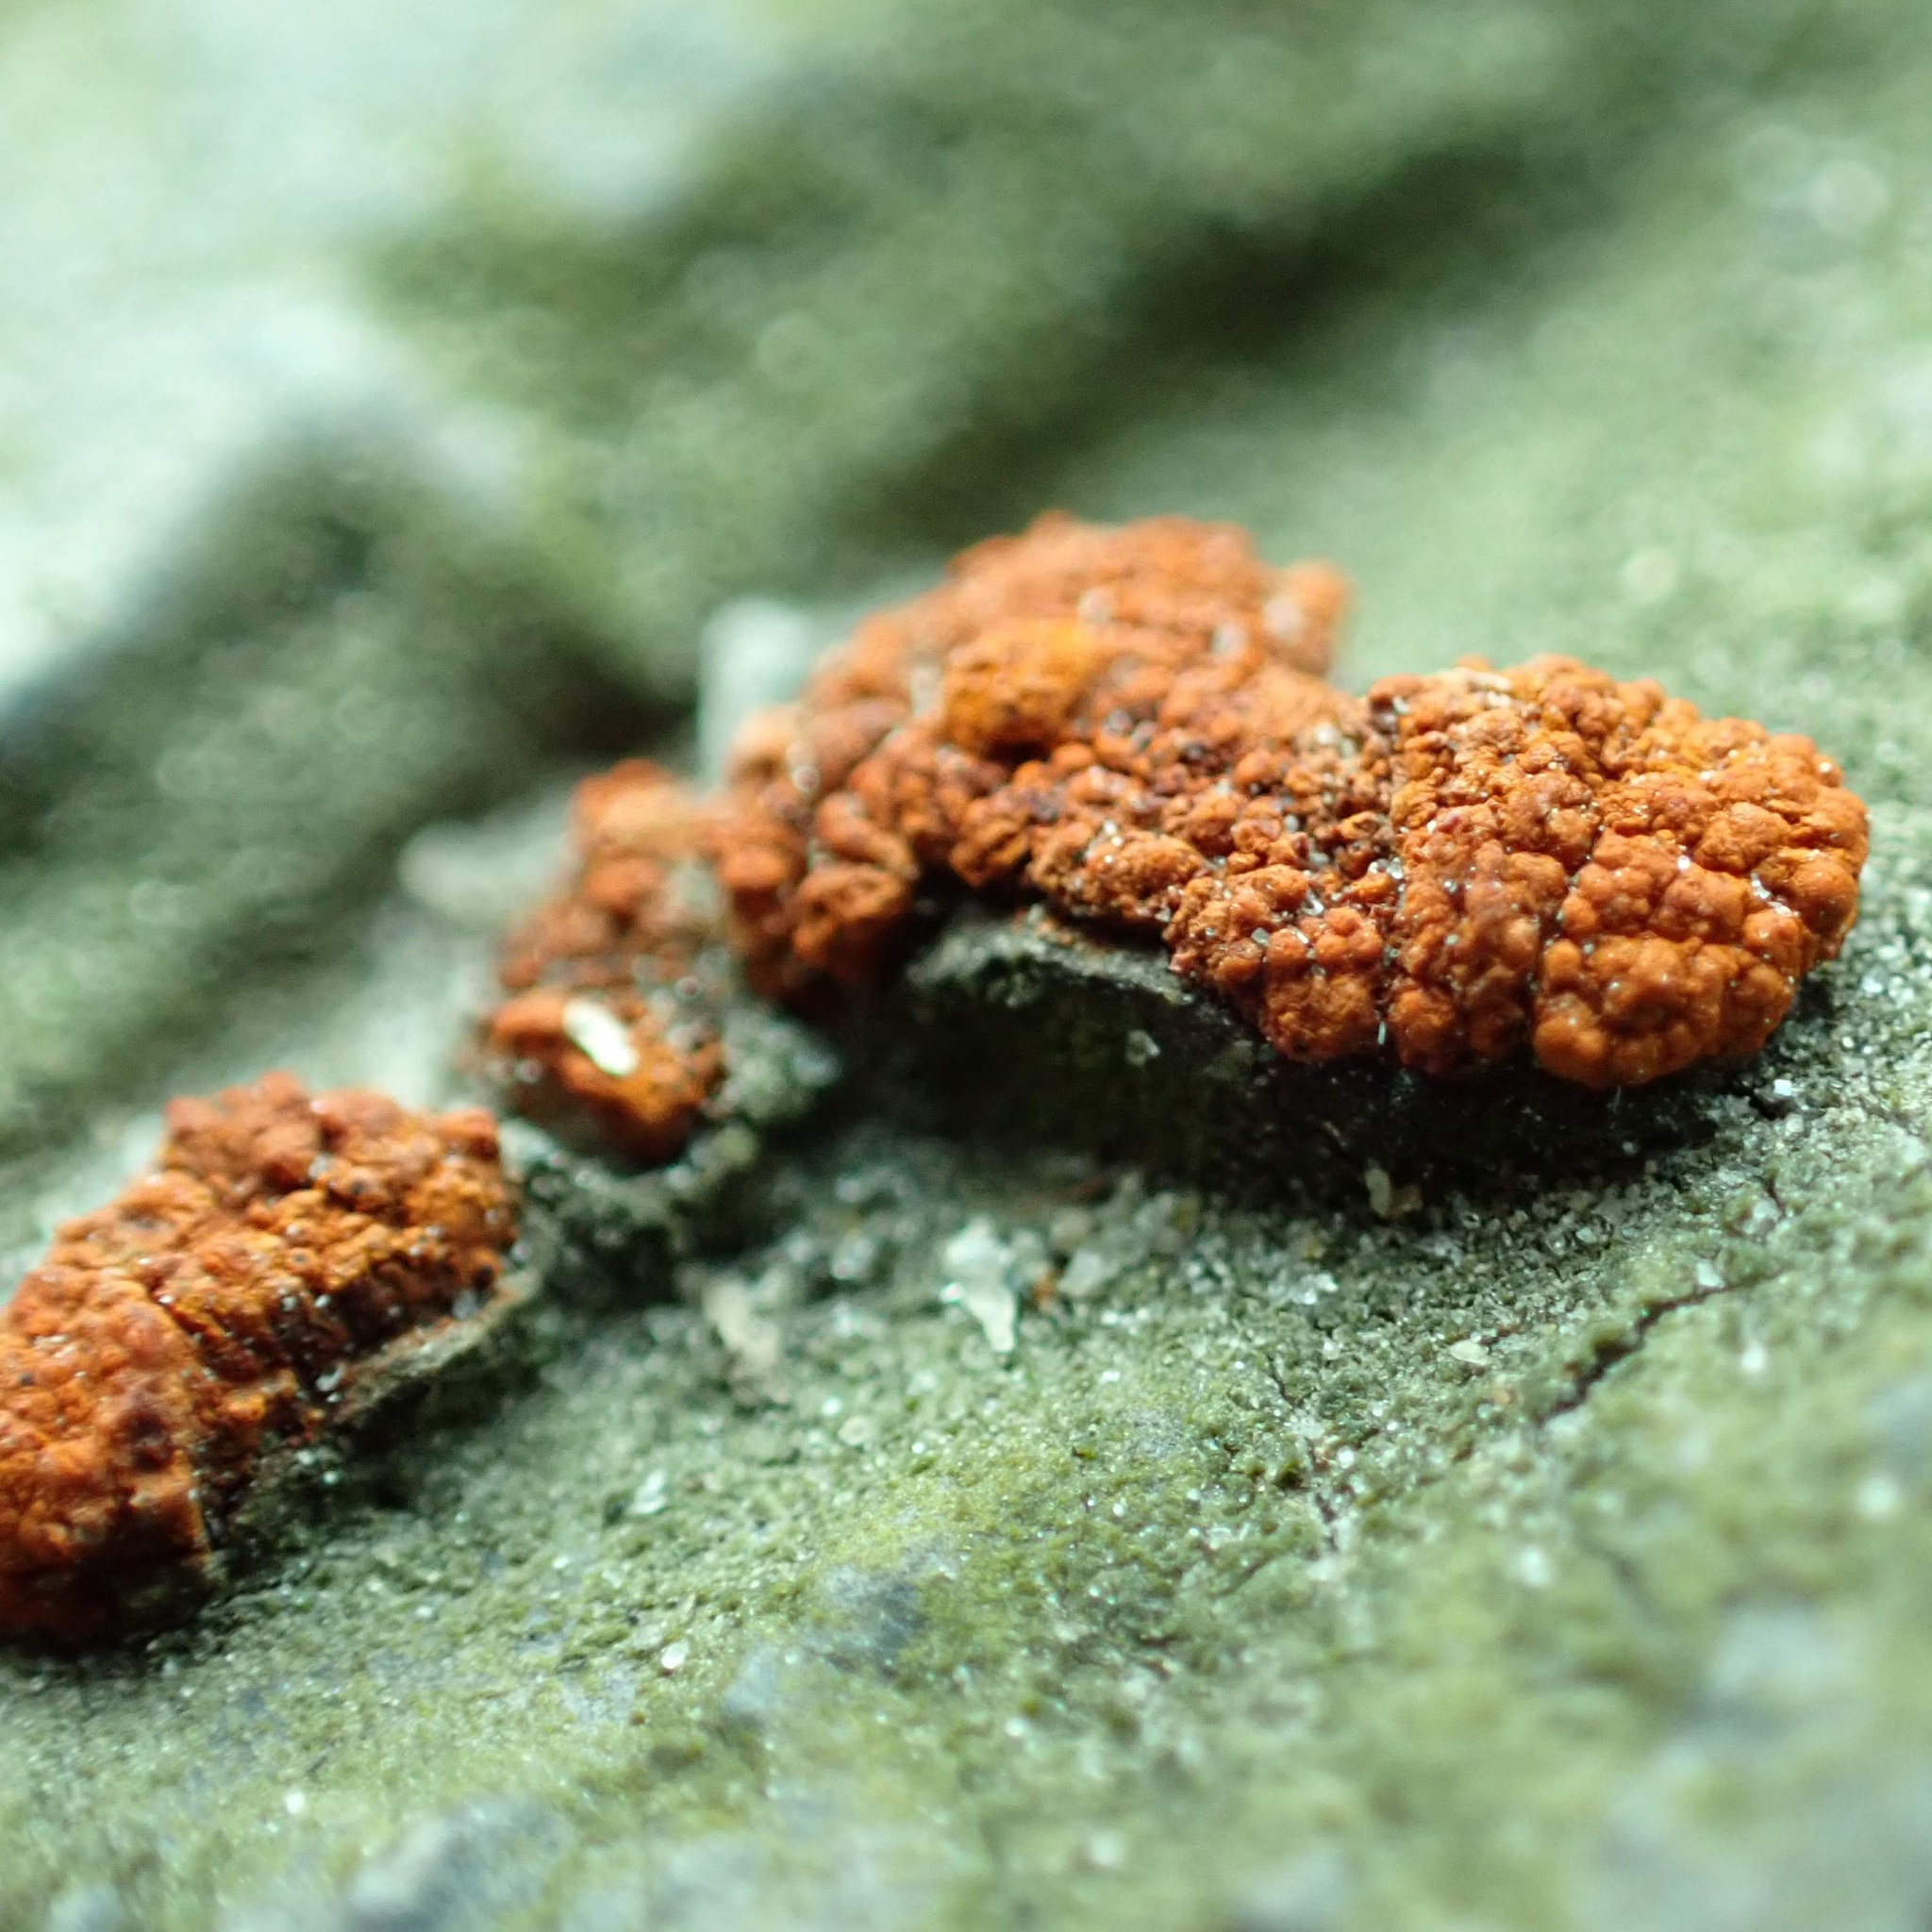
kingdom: Fungi
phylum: Ascomycota
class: Sordariomycetes
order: Diaporthales
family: Cryphonectriaceae
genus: Amphilogia
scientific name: Amphilogia gyrosa
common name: Orange hobnail canker
